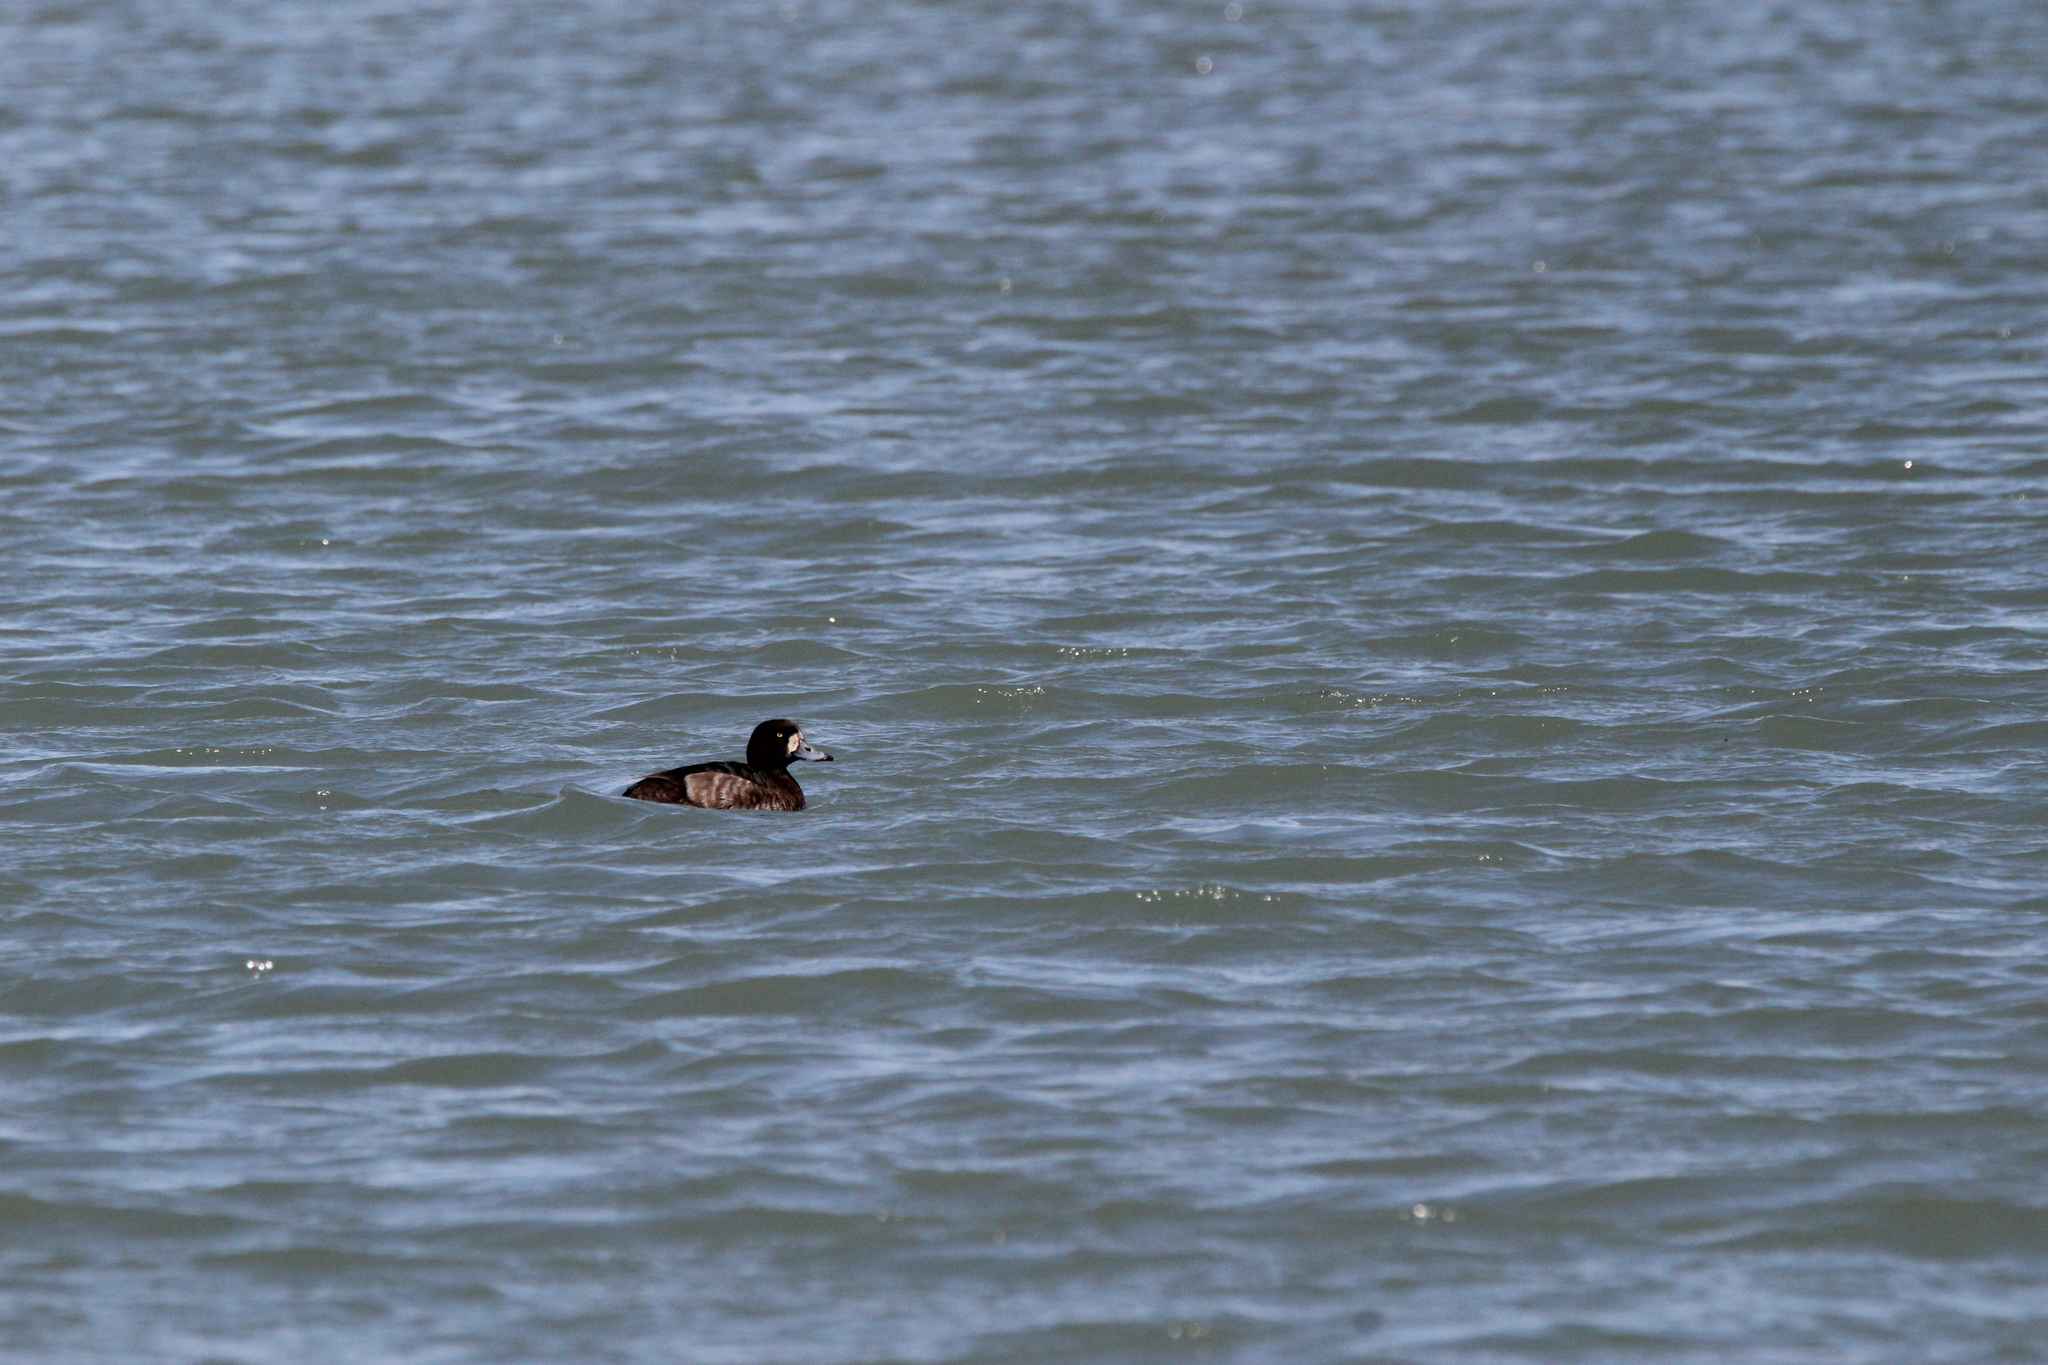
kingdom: Animalia
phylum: Chordata
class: Aves
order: Anseriformes
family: Anatidae
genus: Aythya
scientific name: Aythya marila
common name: Greater scaup
